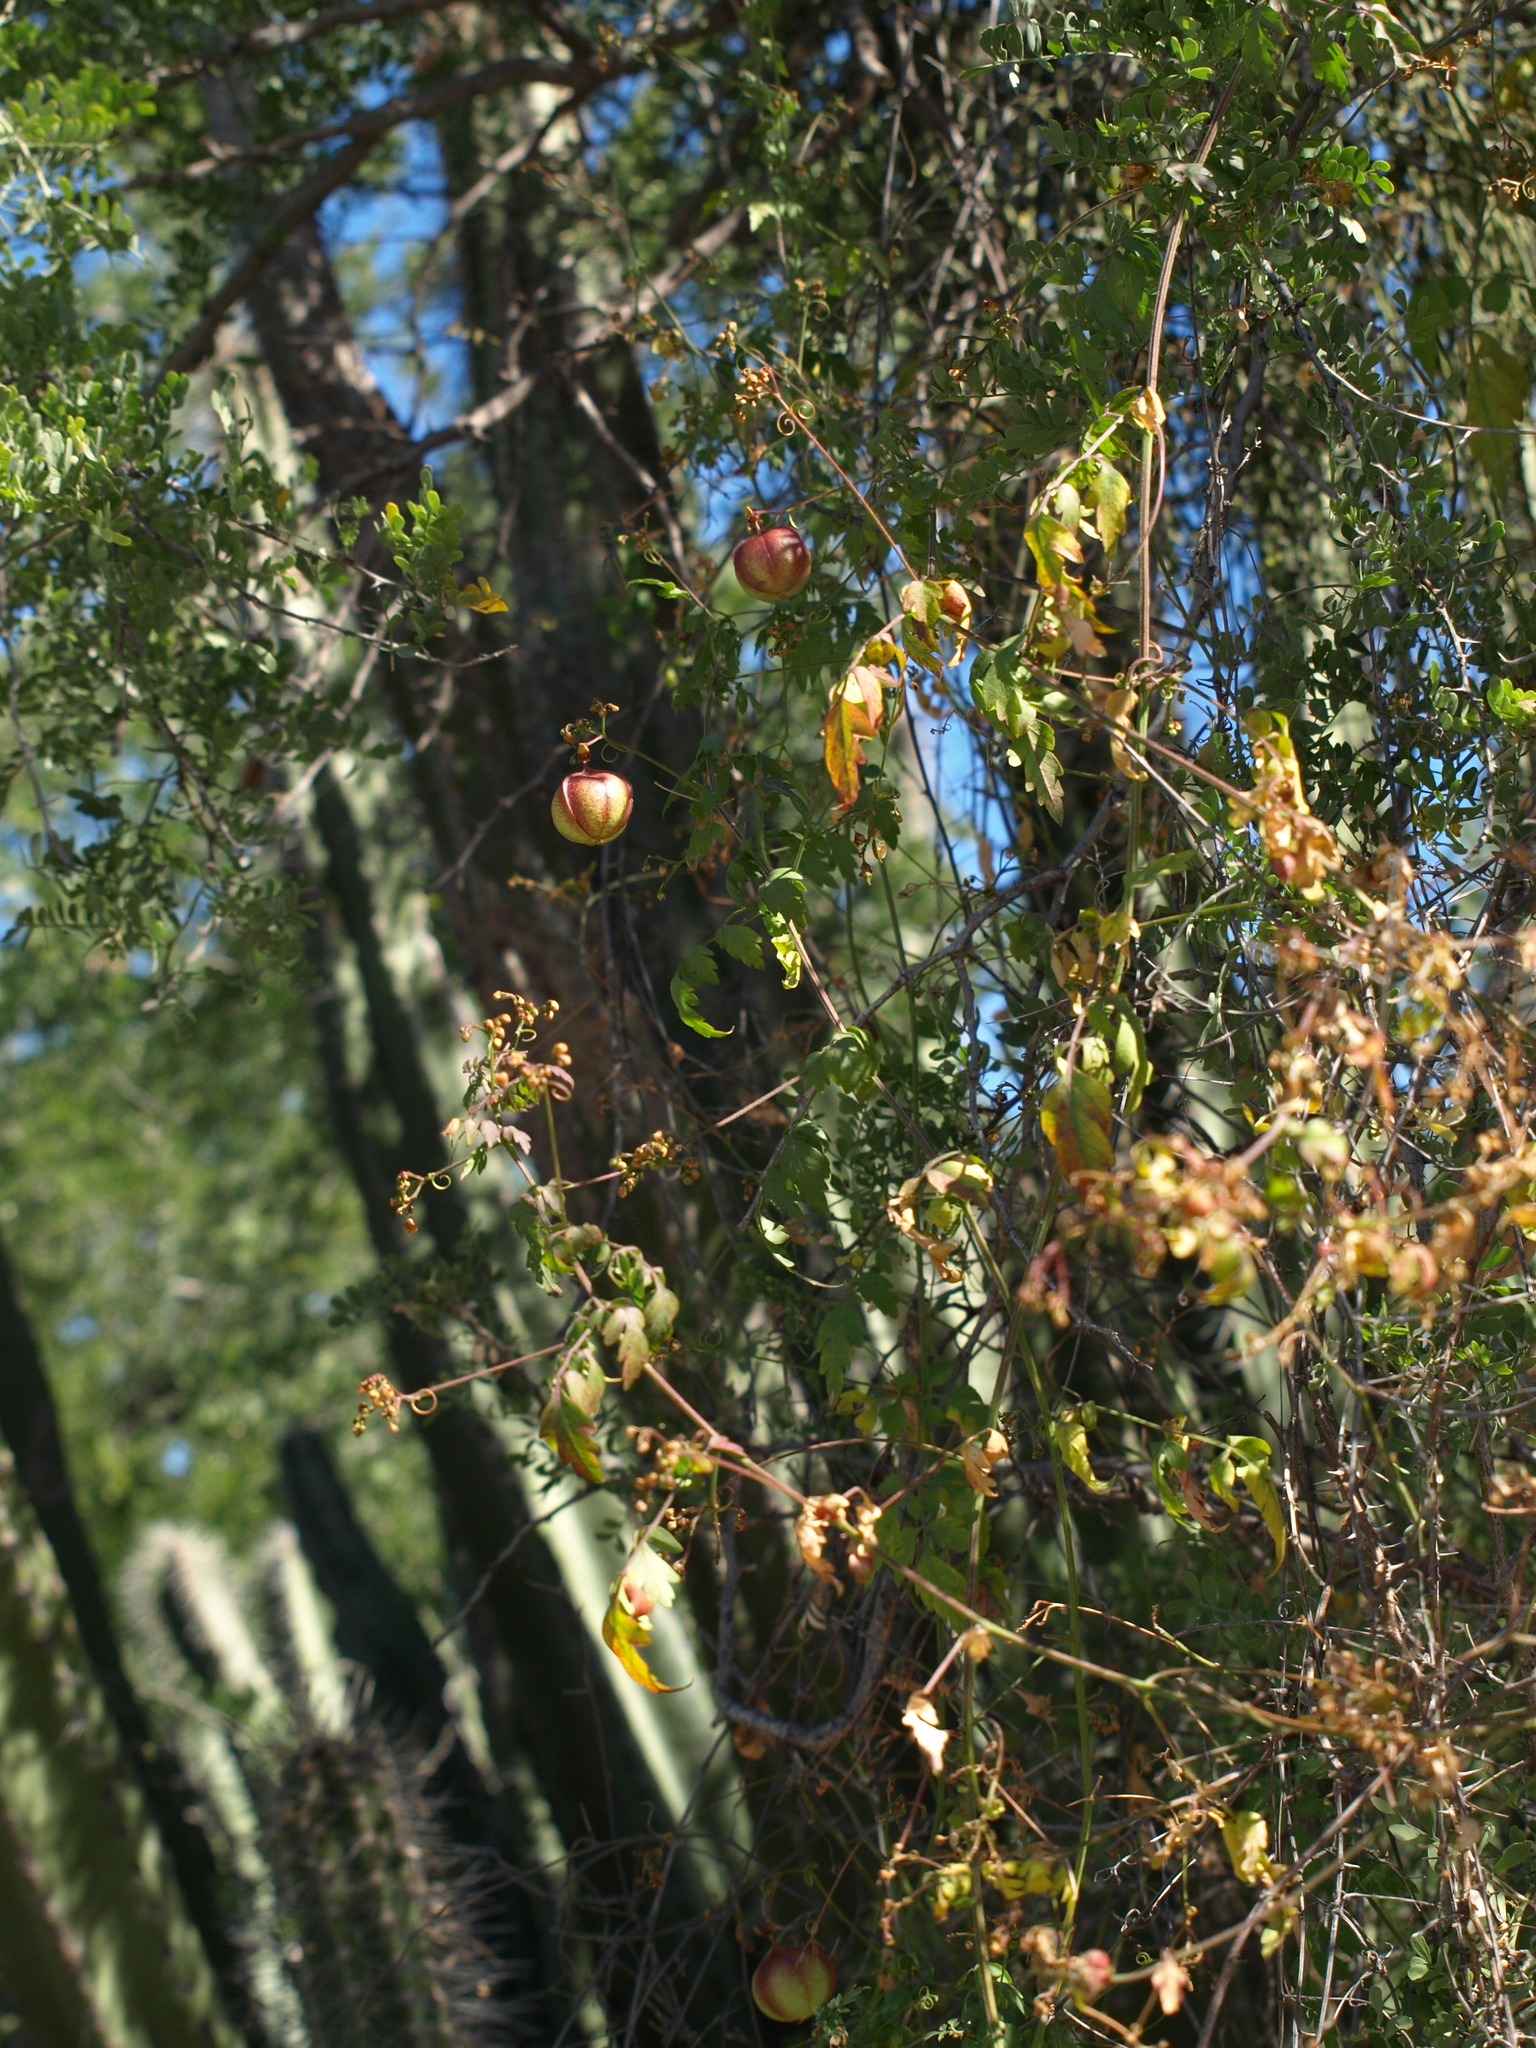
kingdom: Plantae
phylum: Tracheophyta
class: Magnoliopsida
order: Sapindales
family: Sapindaceae
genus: Cardiospermum
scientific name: Cardiospermum corindum
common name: Faux persil
